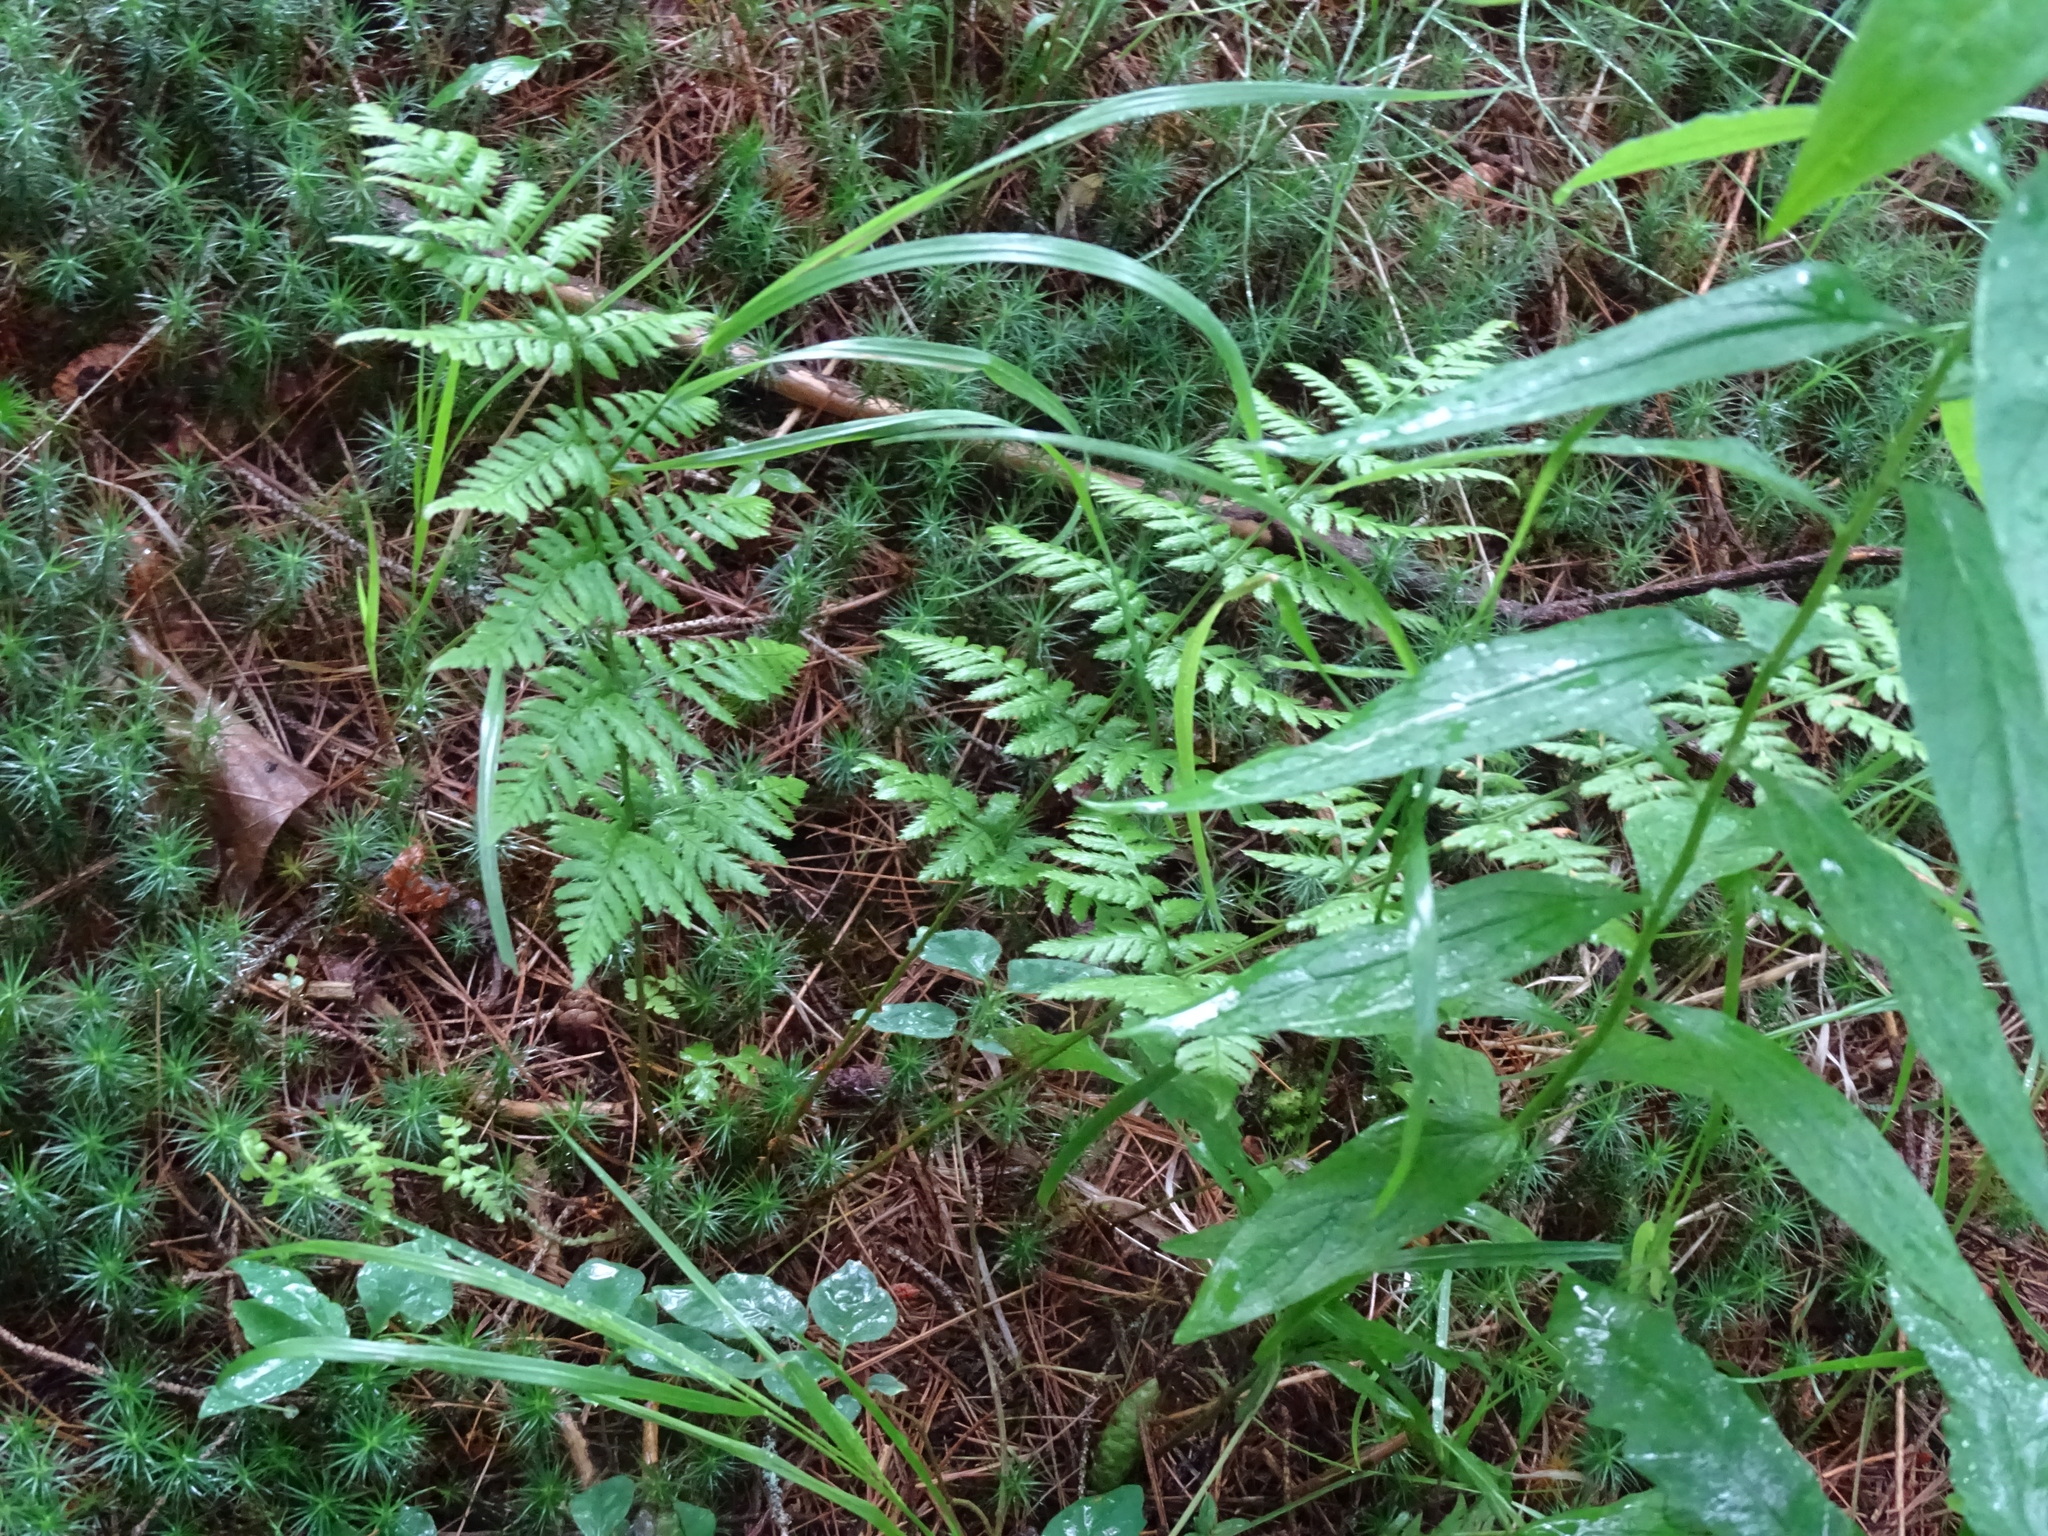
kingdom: Plantae
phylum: Tracheophyta
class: Polypodiopsida
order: Polypodiales
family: Dryopteridaceae
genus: Dryopteris
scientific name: Dryopteris carthusiana
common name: Narrow buckler-fern
